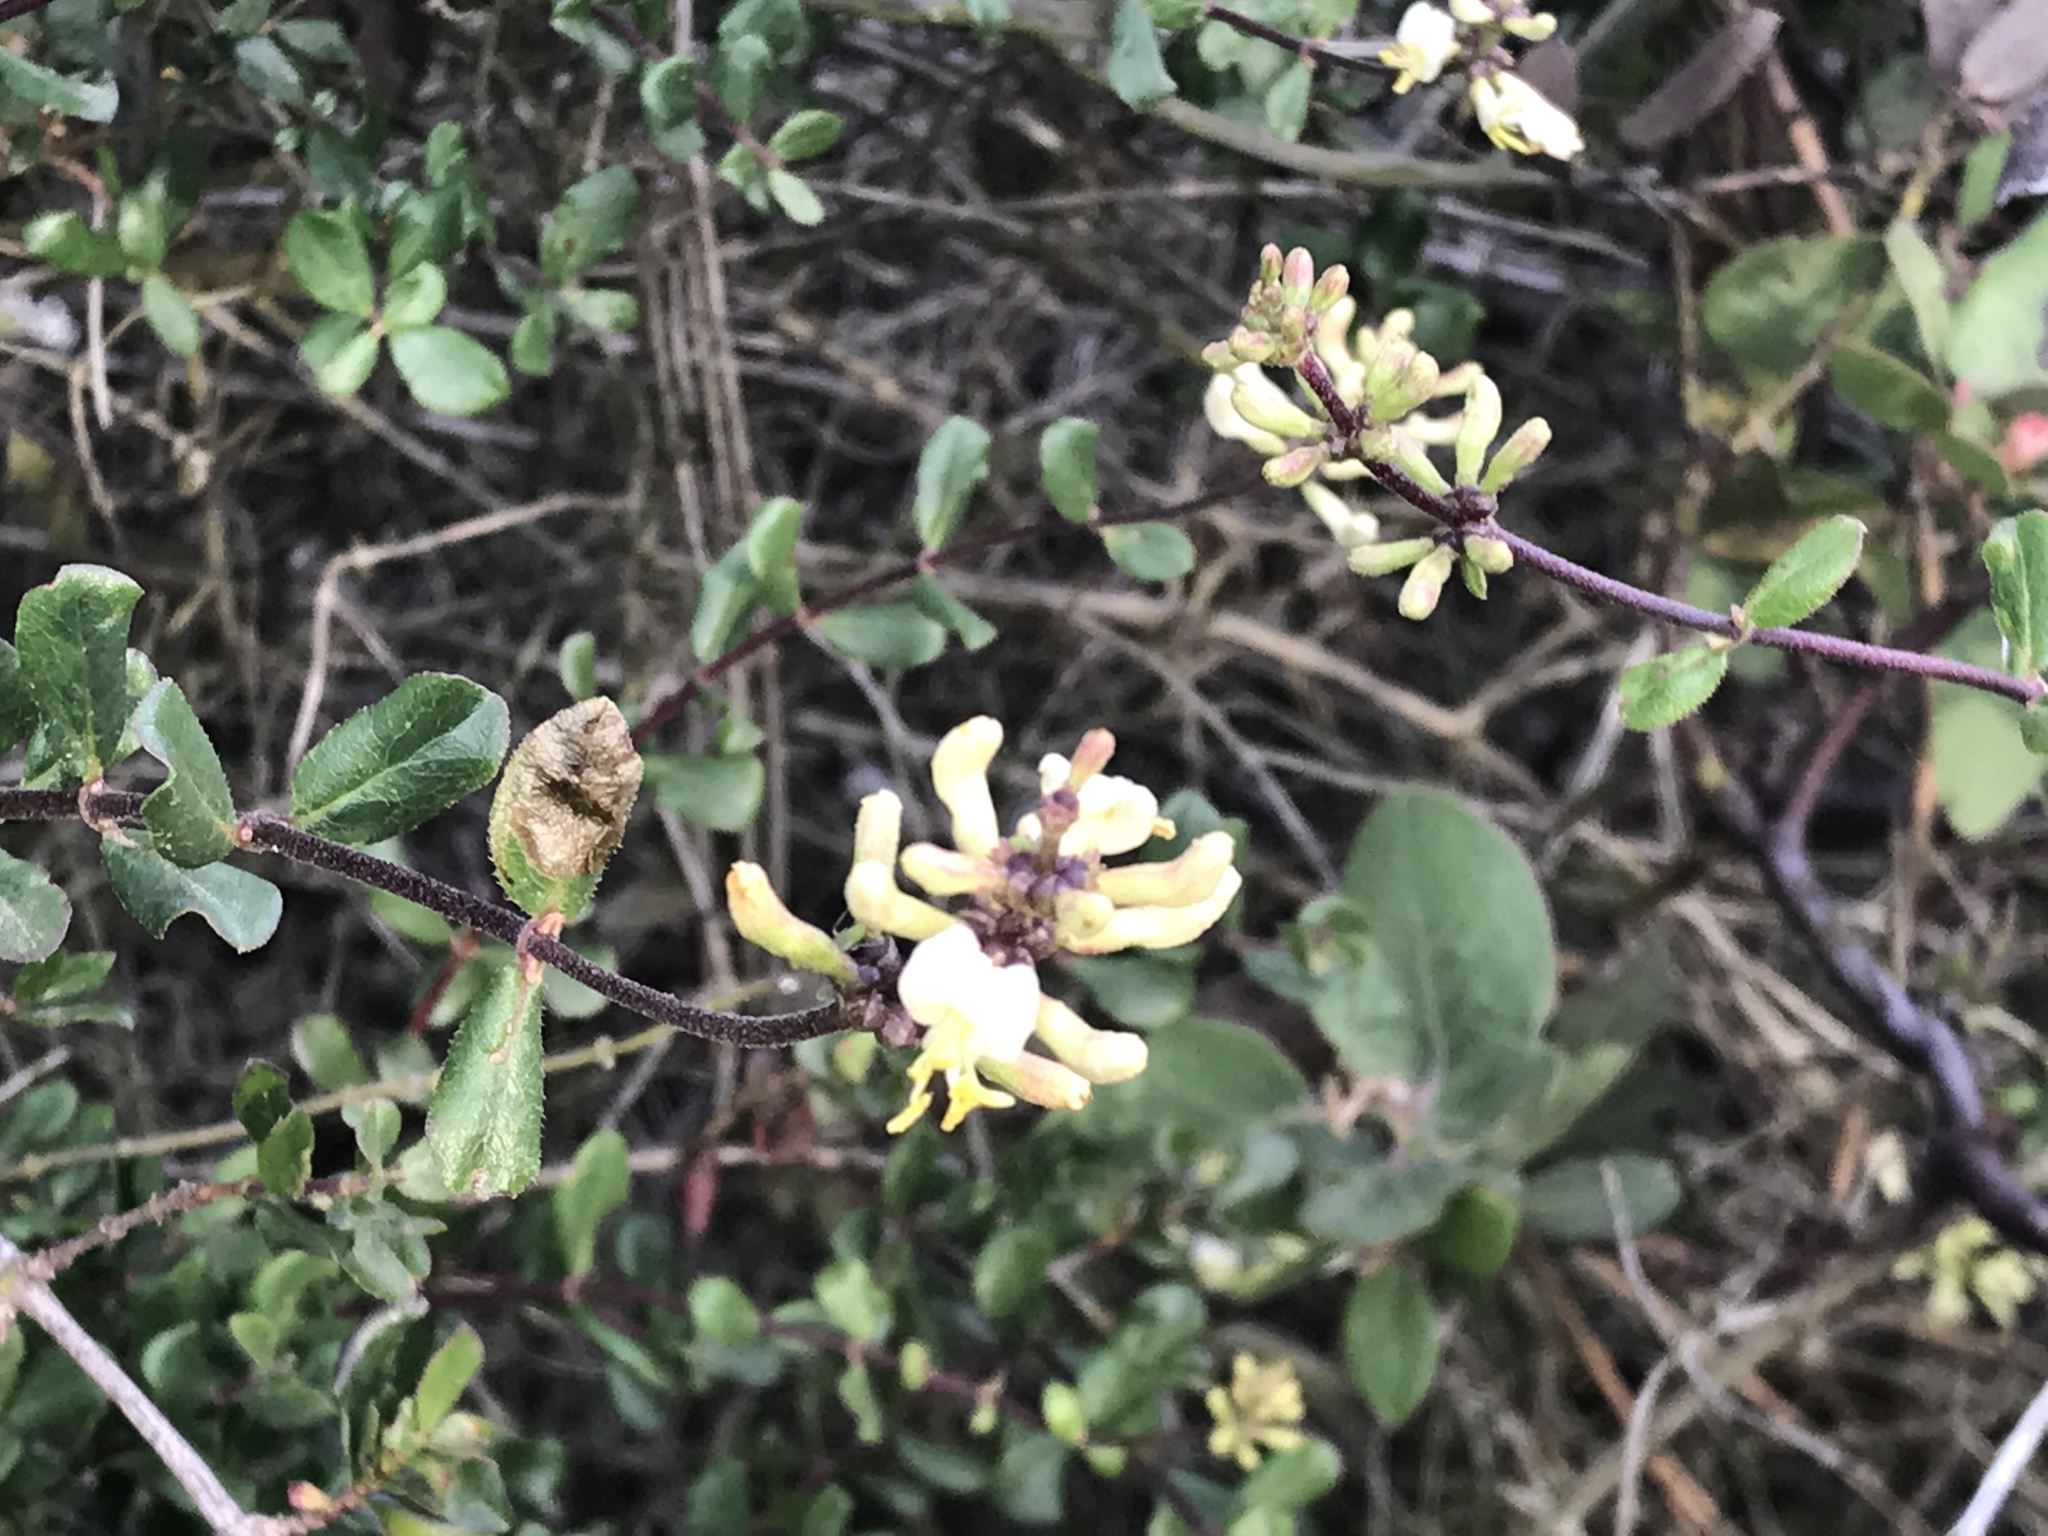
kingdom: Plantae
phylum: Tracheophyta
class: Magnoliopsida
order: Dipsacales
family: Caprifoliaceae
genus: Lonicera
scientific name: Lonicera subspicata
